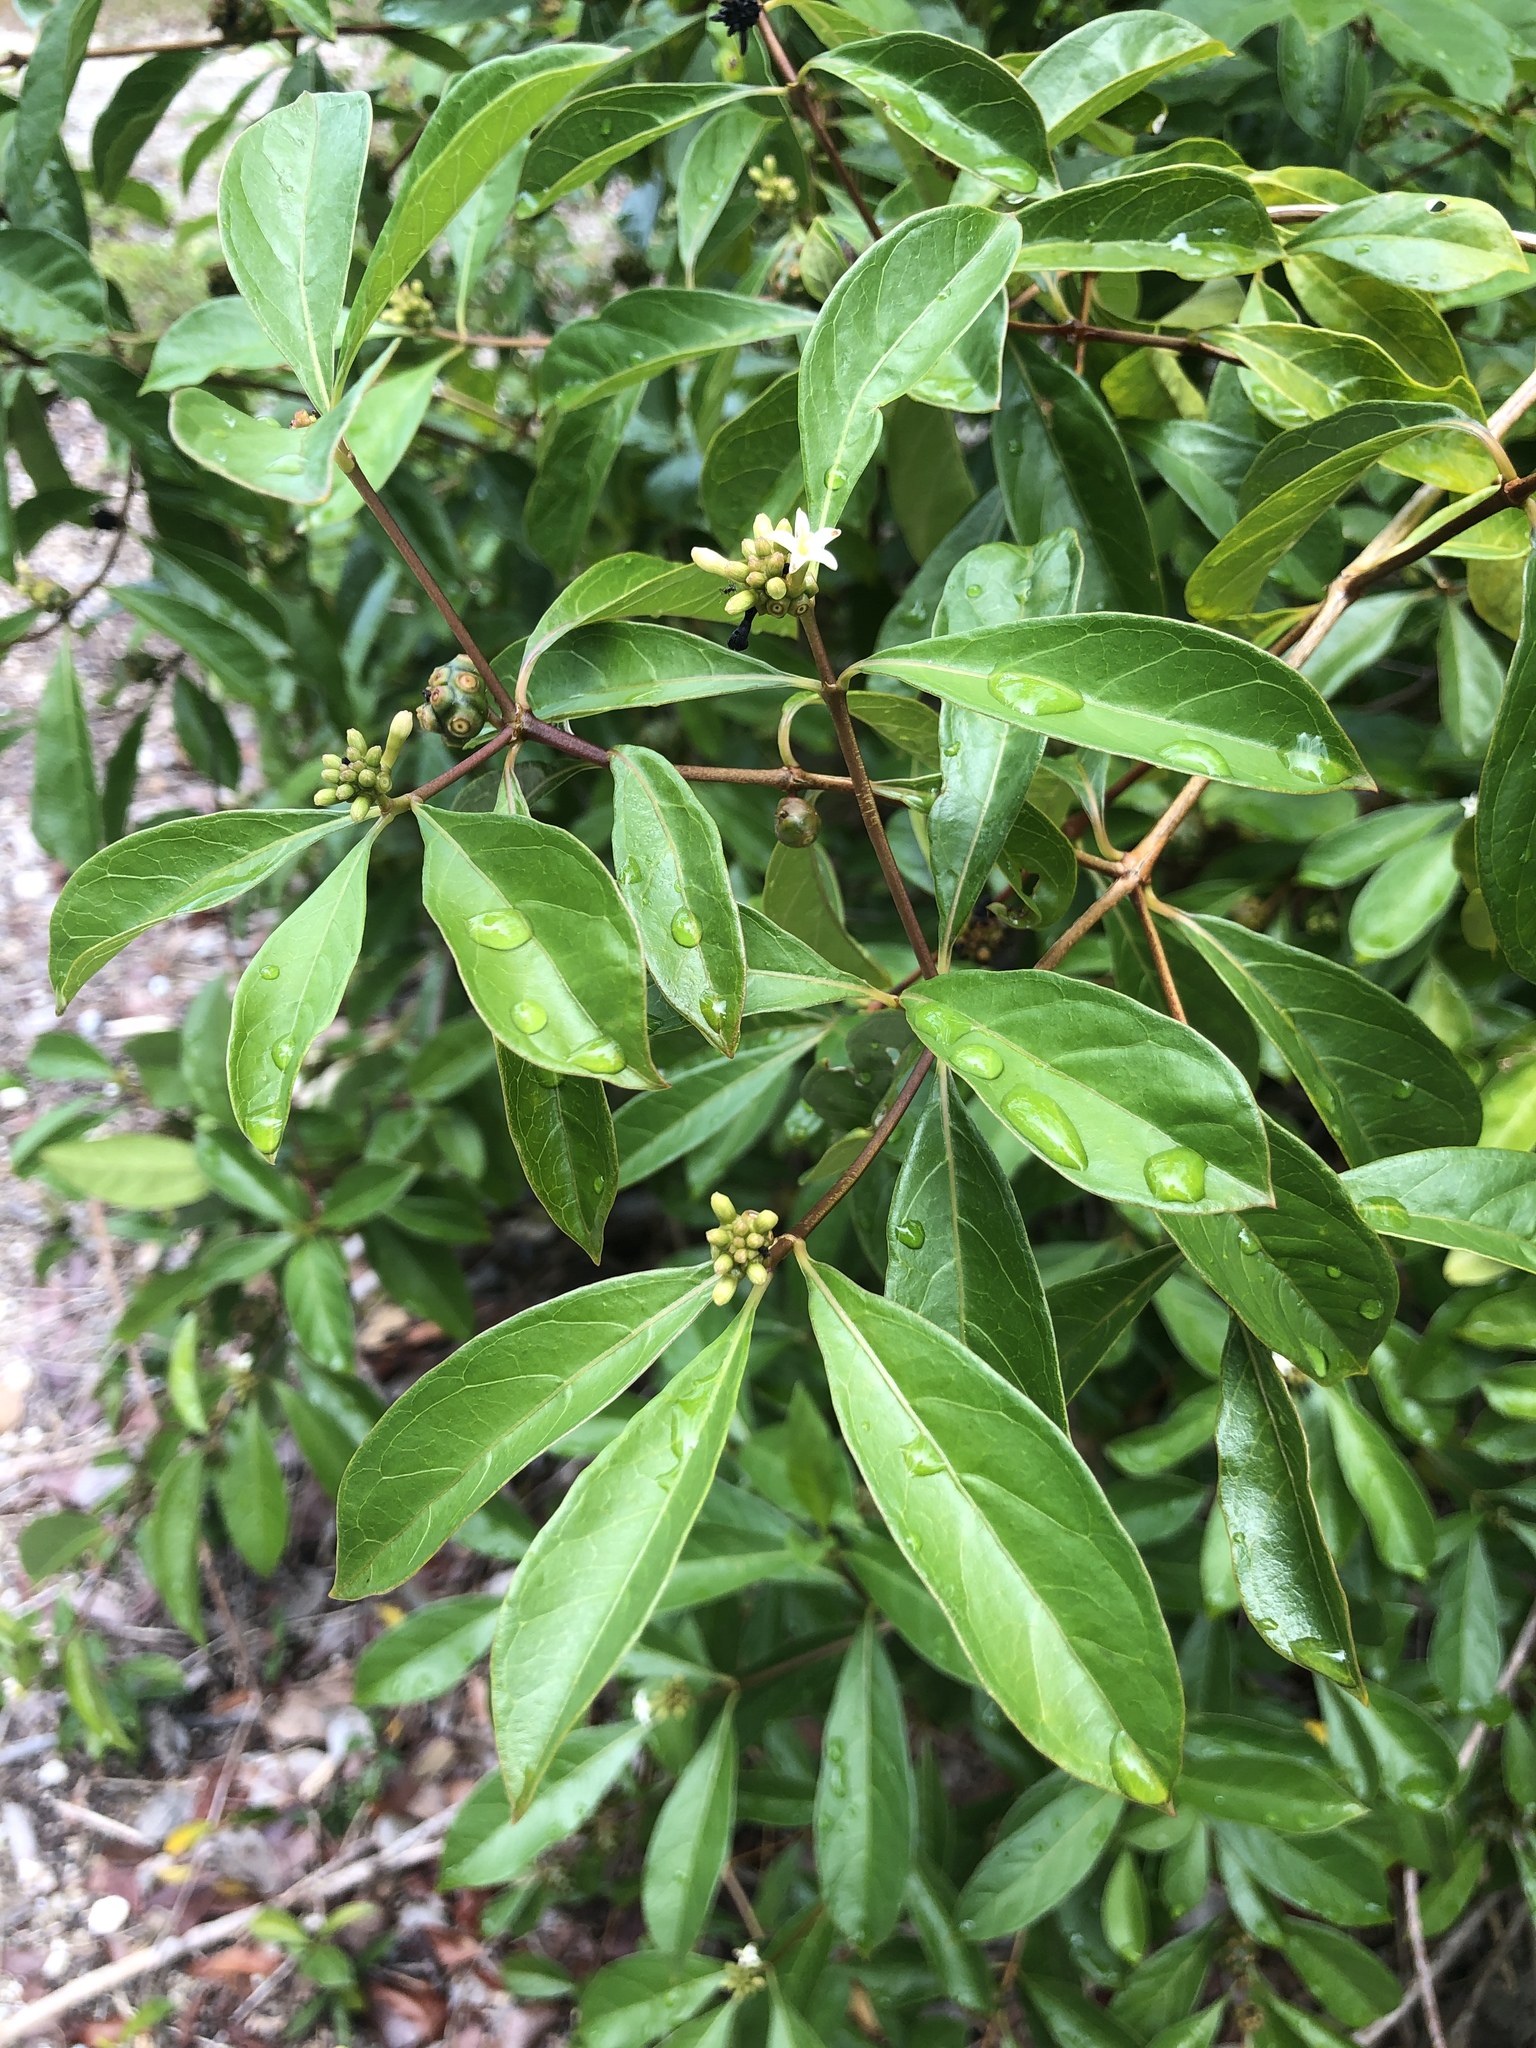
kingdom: Plantae
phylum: Tracheophyta
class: Magnoliopsida
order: Gentianales
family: Rubiaceae
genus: Morinda
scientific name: Morinda royoc
